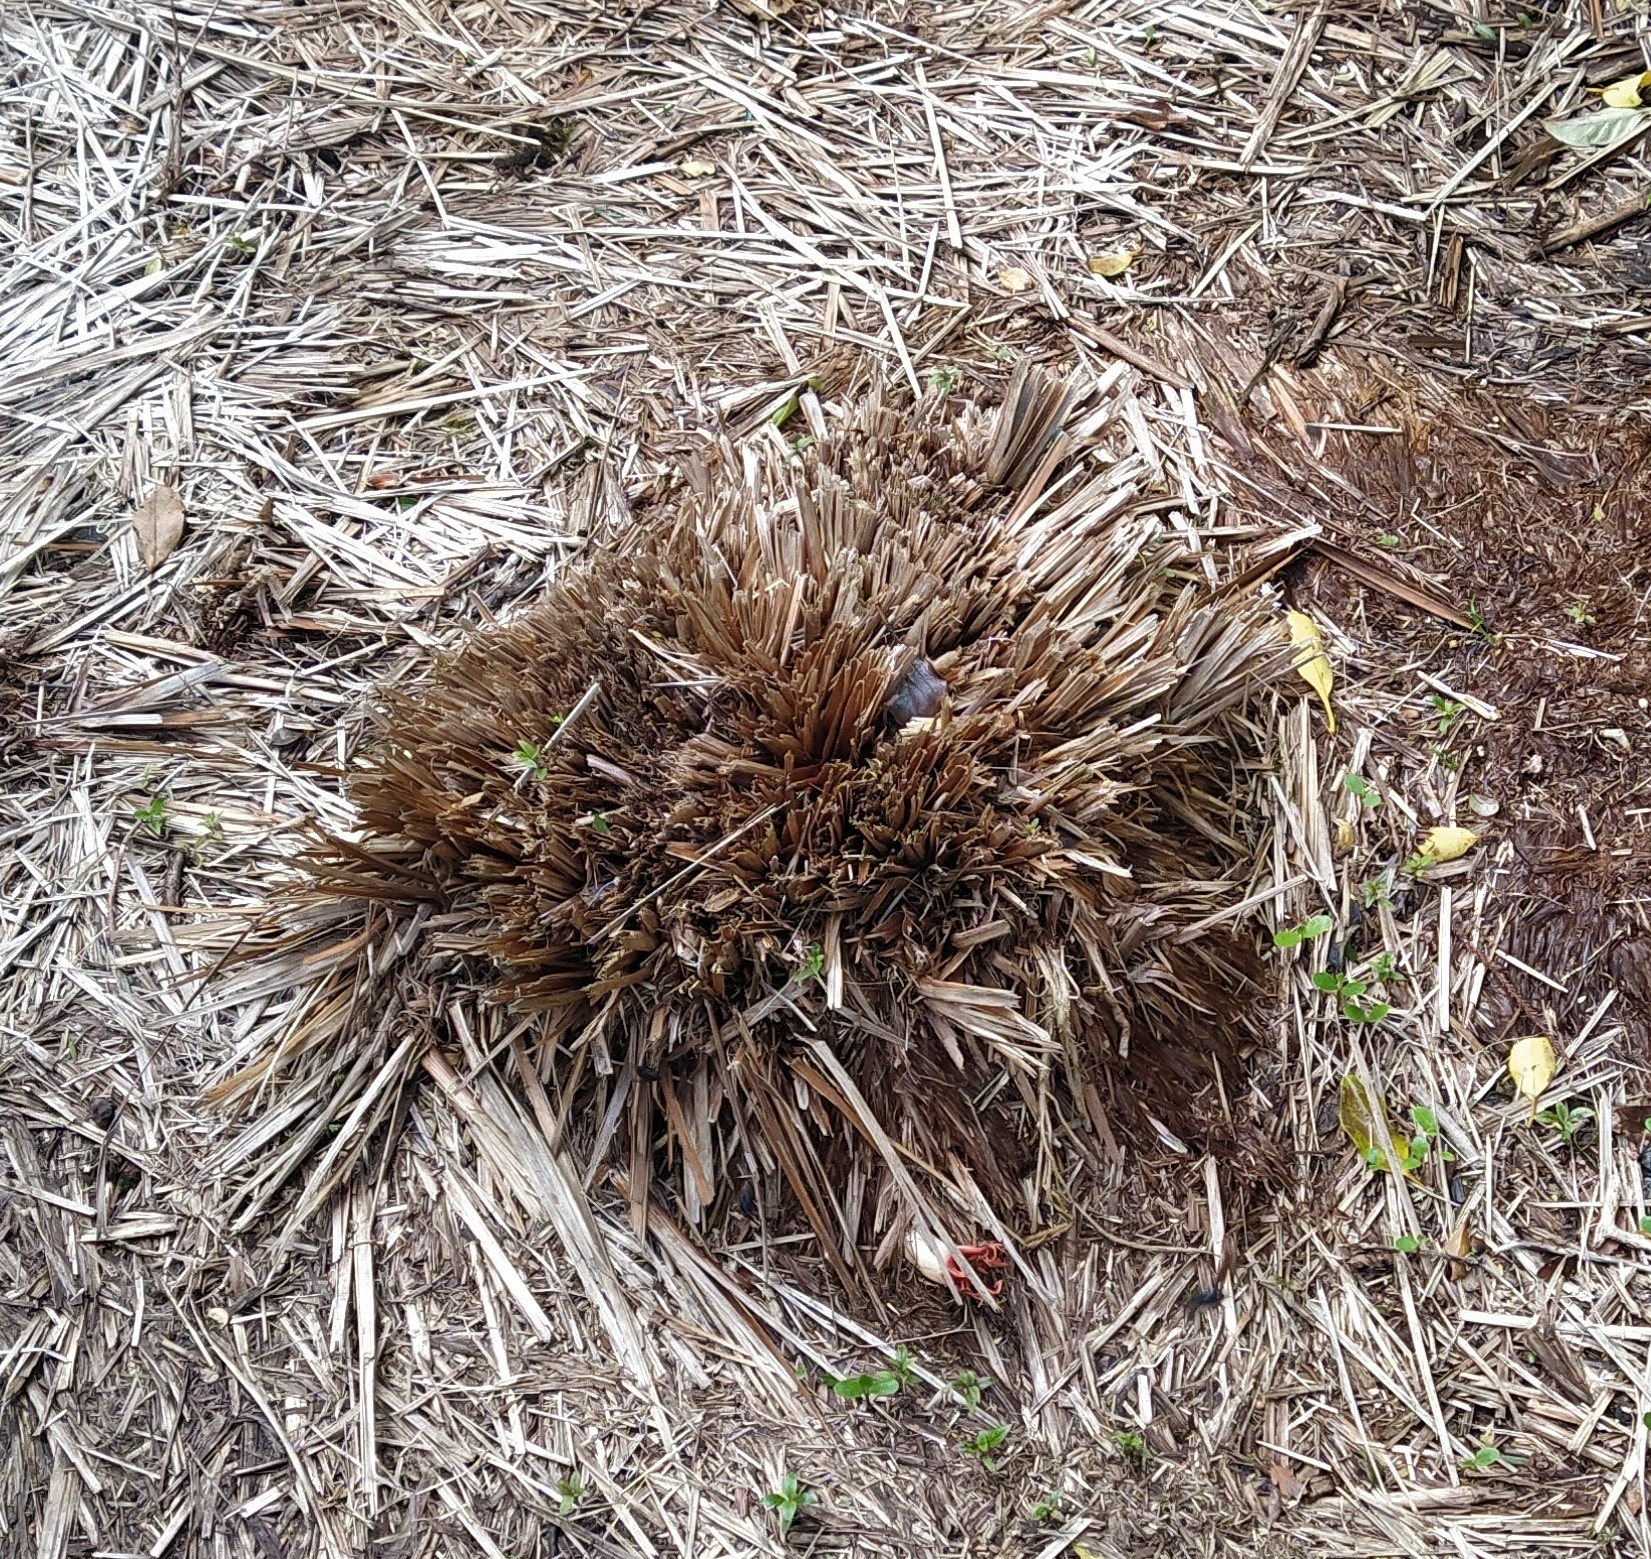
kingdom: Fungi
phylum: Basidiomycota
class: Agaricomycetes
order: Phallales
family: Phallaceae
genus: Aseroe
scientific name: Aseroe rubra
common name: Starfish fungus
